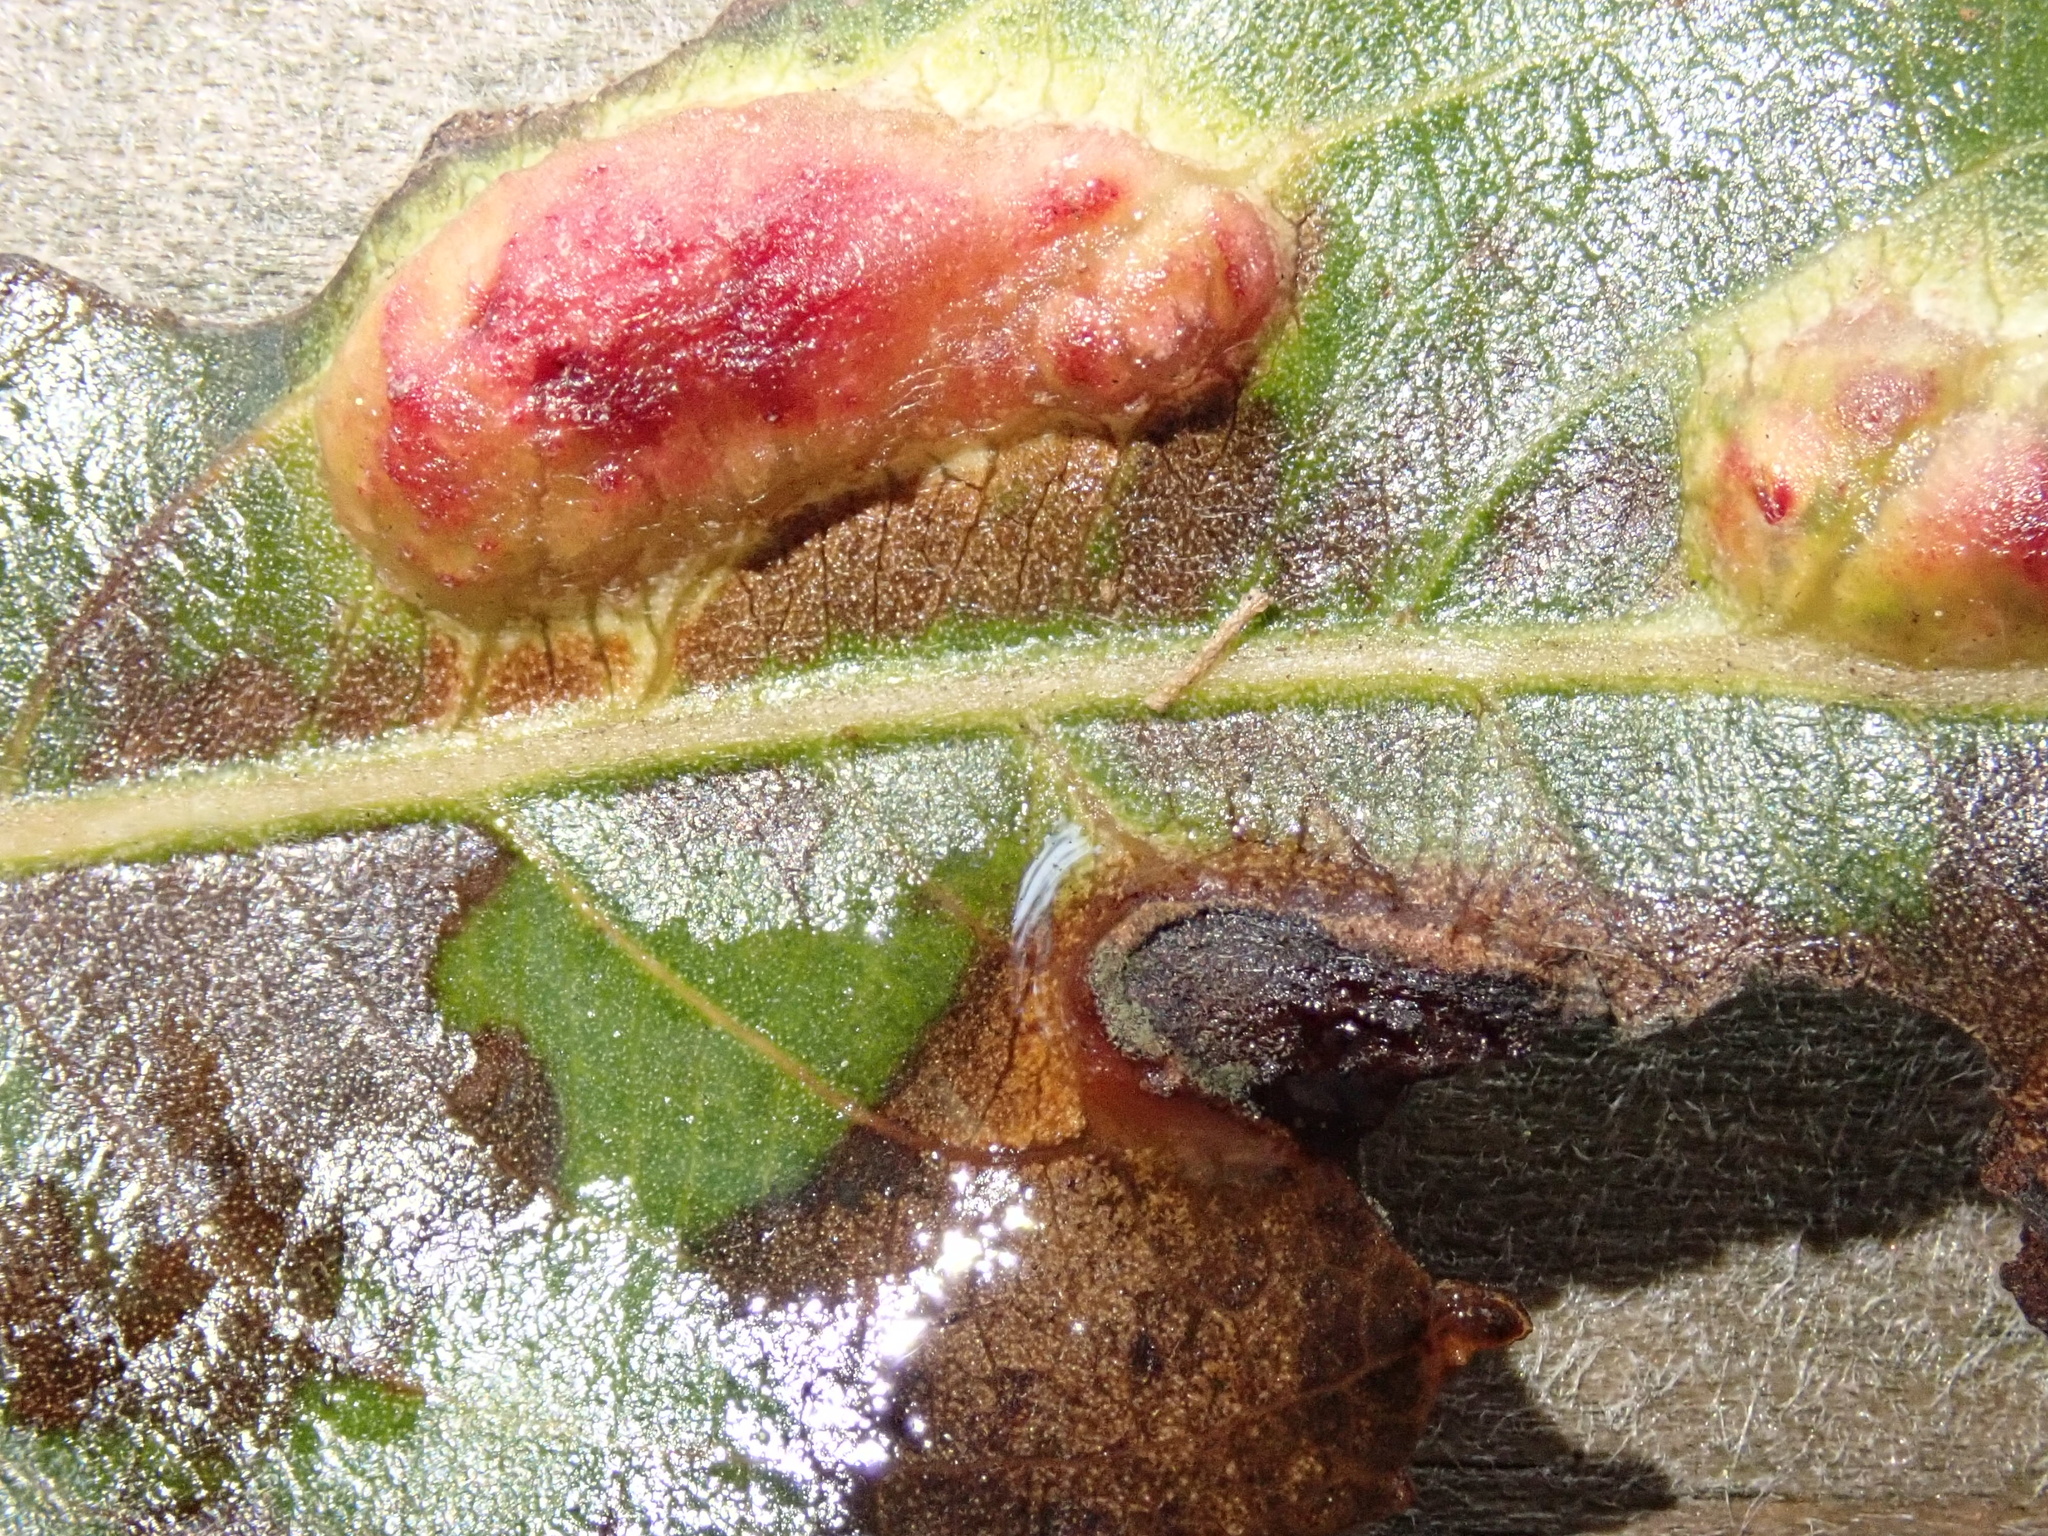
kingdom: Animalia
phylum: Arthropoda
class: Insecta
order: Hymenoptera
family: Tenthredinidae
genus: Pontania
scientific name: Pontania proxima
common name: Common sawfly
